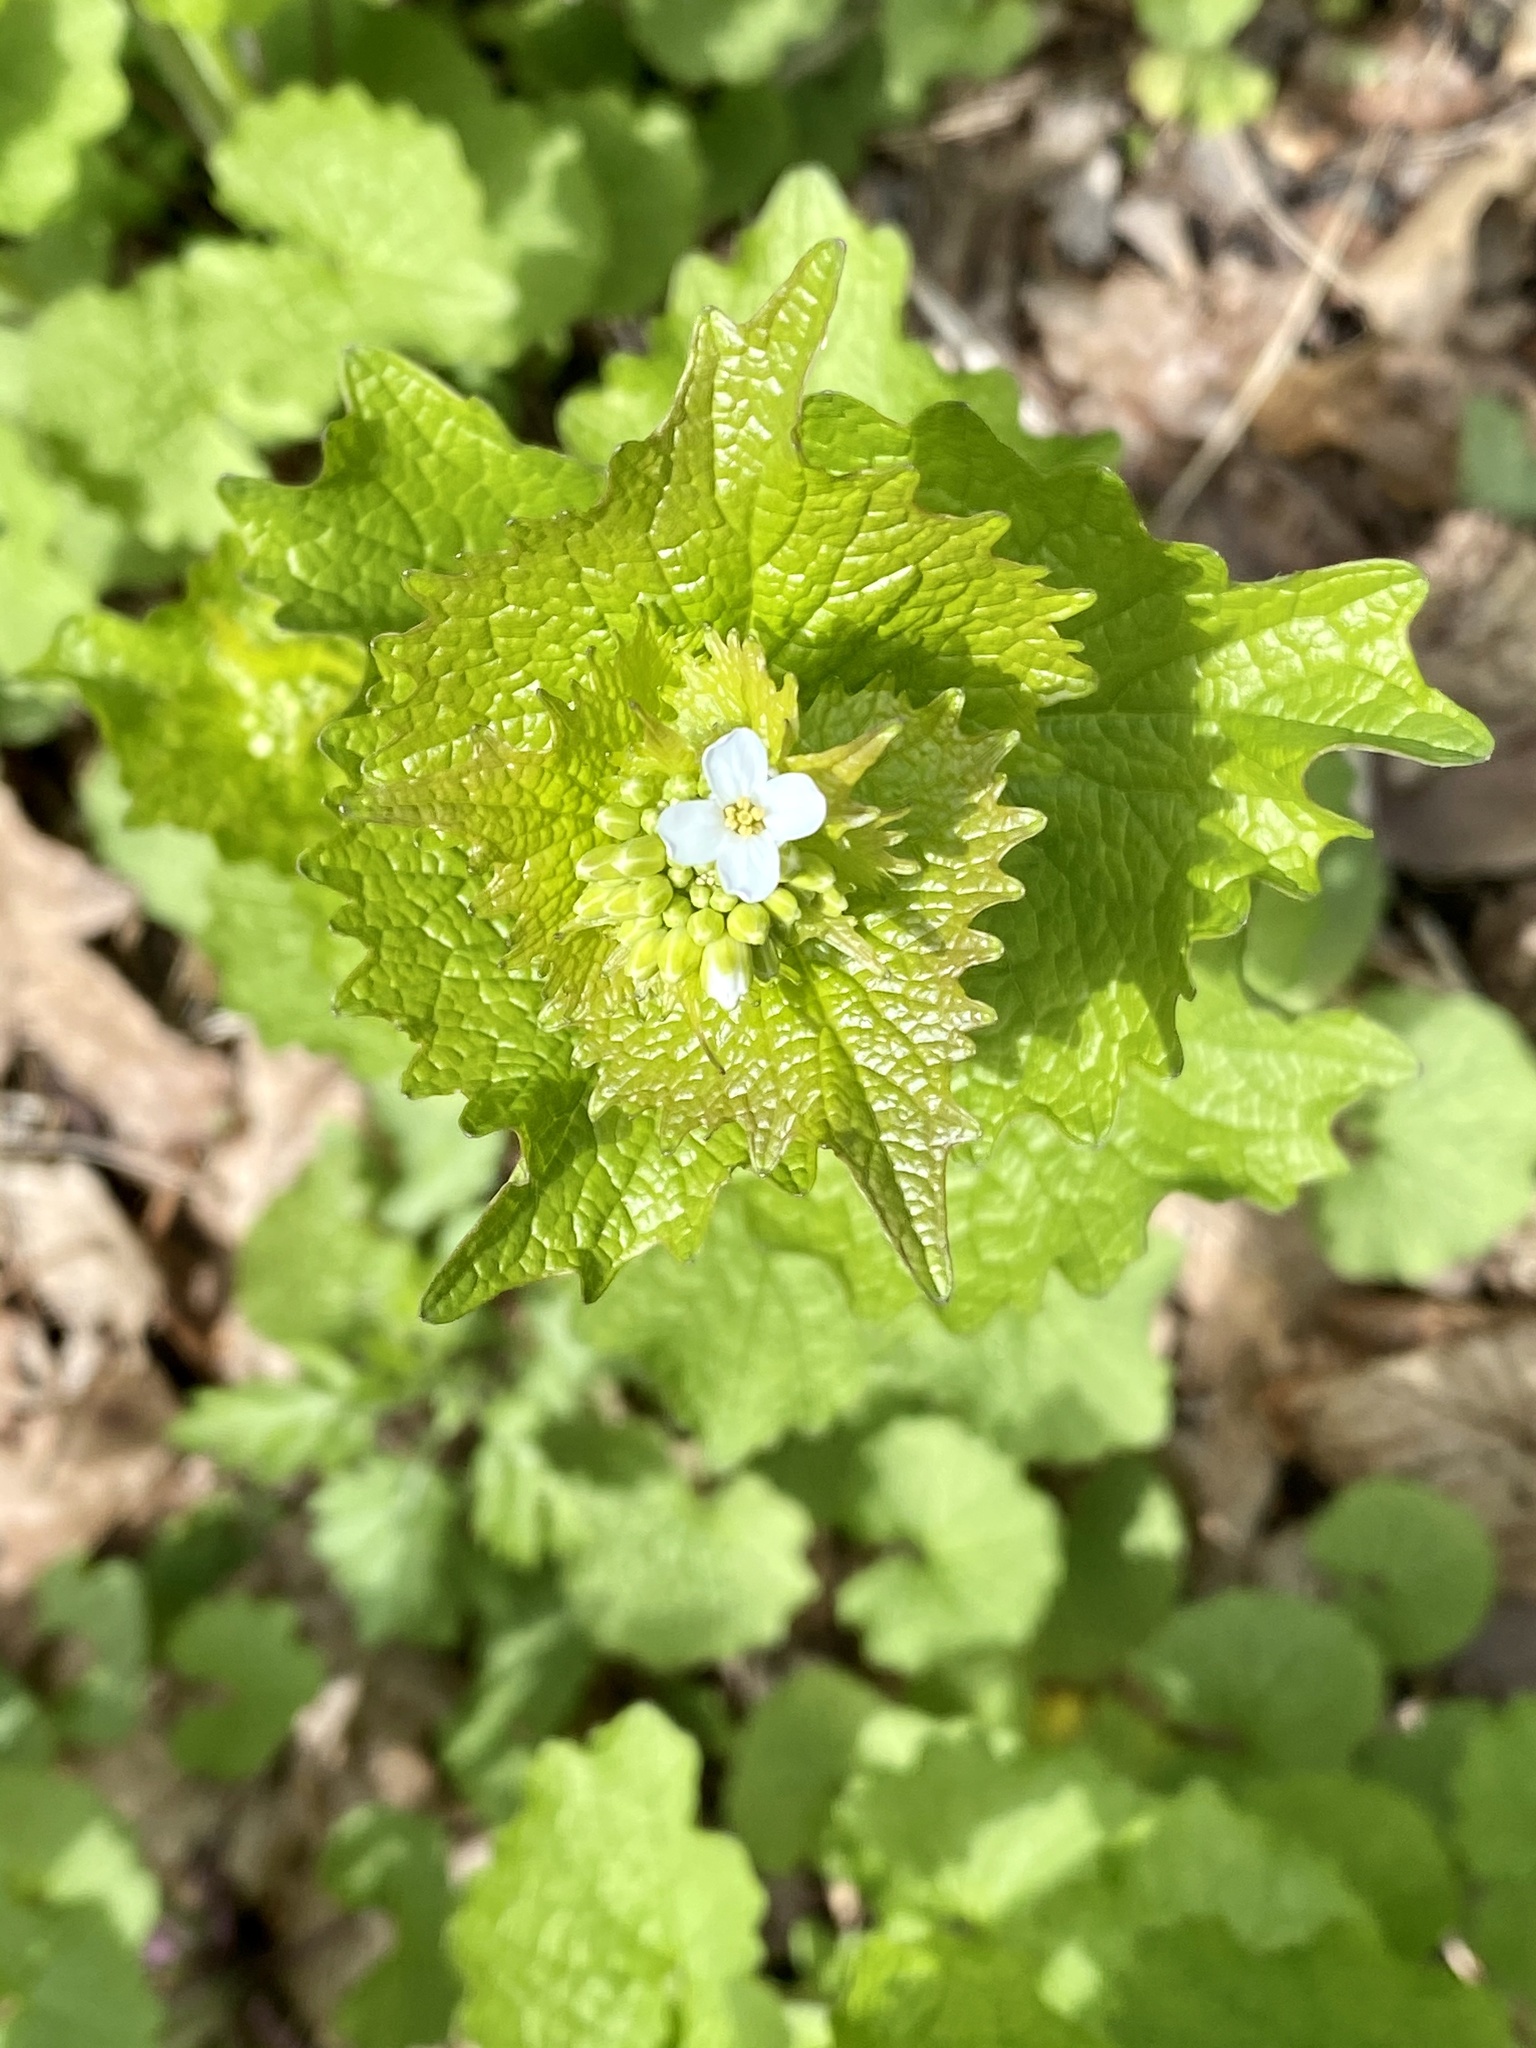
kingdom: Plantae
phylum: Tracheophyta
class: Magnoliopsida
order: Brassicales
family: Brassicaceae
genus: Alliaria
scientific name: Alliaria petiolata
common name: Garlic mustard
